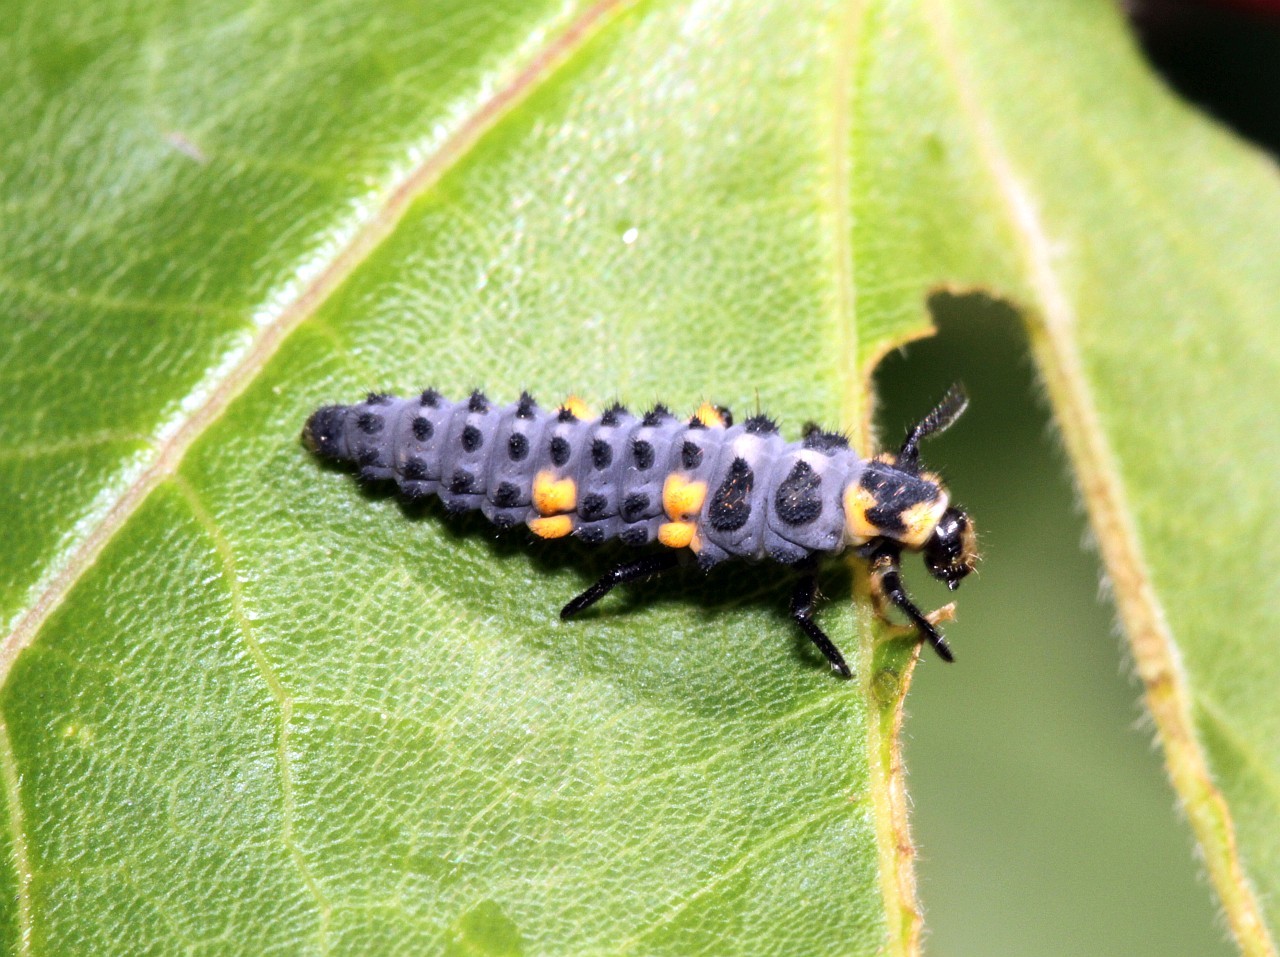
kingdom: Animalia
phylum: Arthropoda
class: Insecta
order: Coleoptera
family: Coccinellidae
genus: Coccinella
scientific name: Coccinella septempunctata
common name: Sevenspotted lady beetle
